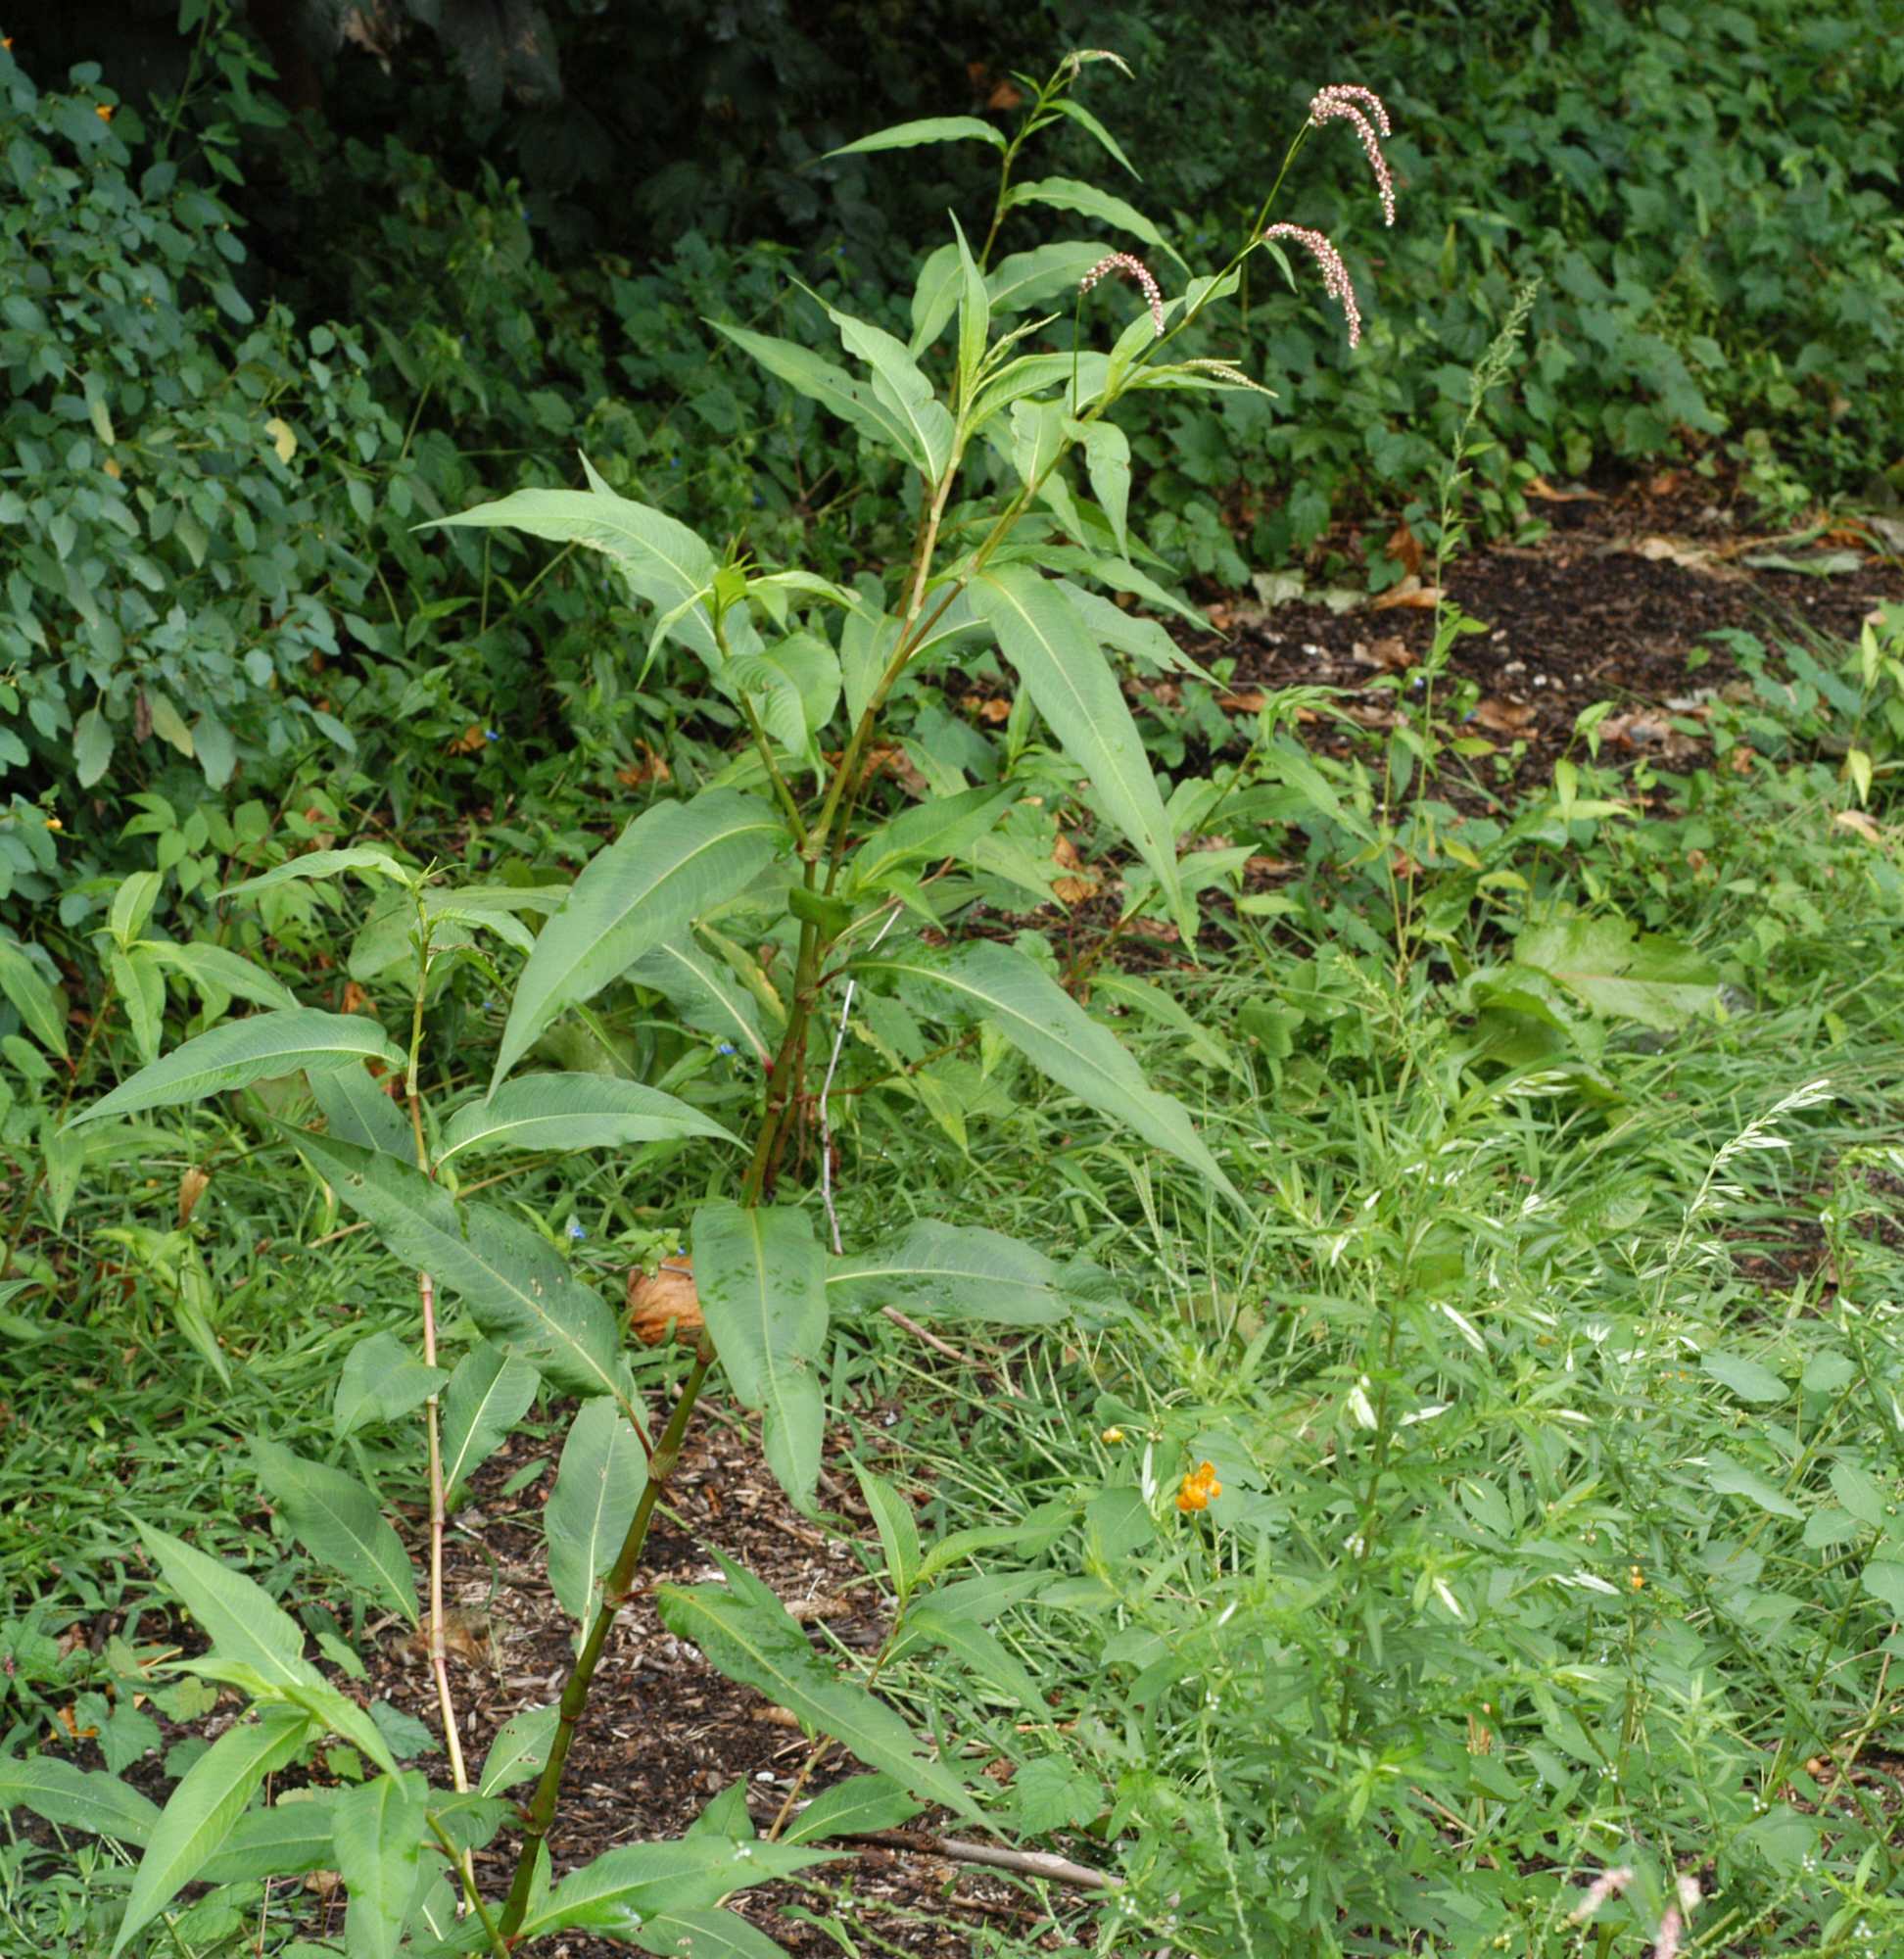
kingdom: Plantae
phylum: Tracheophyta
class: Magnoliopsida
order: Caryophyllales
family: Polygonaceae
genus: Persicaria
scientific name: Persicaria extremiorientalis
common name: Far-eastern smartweed
